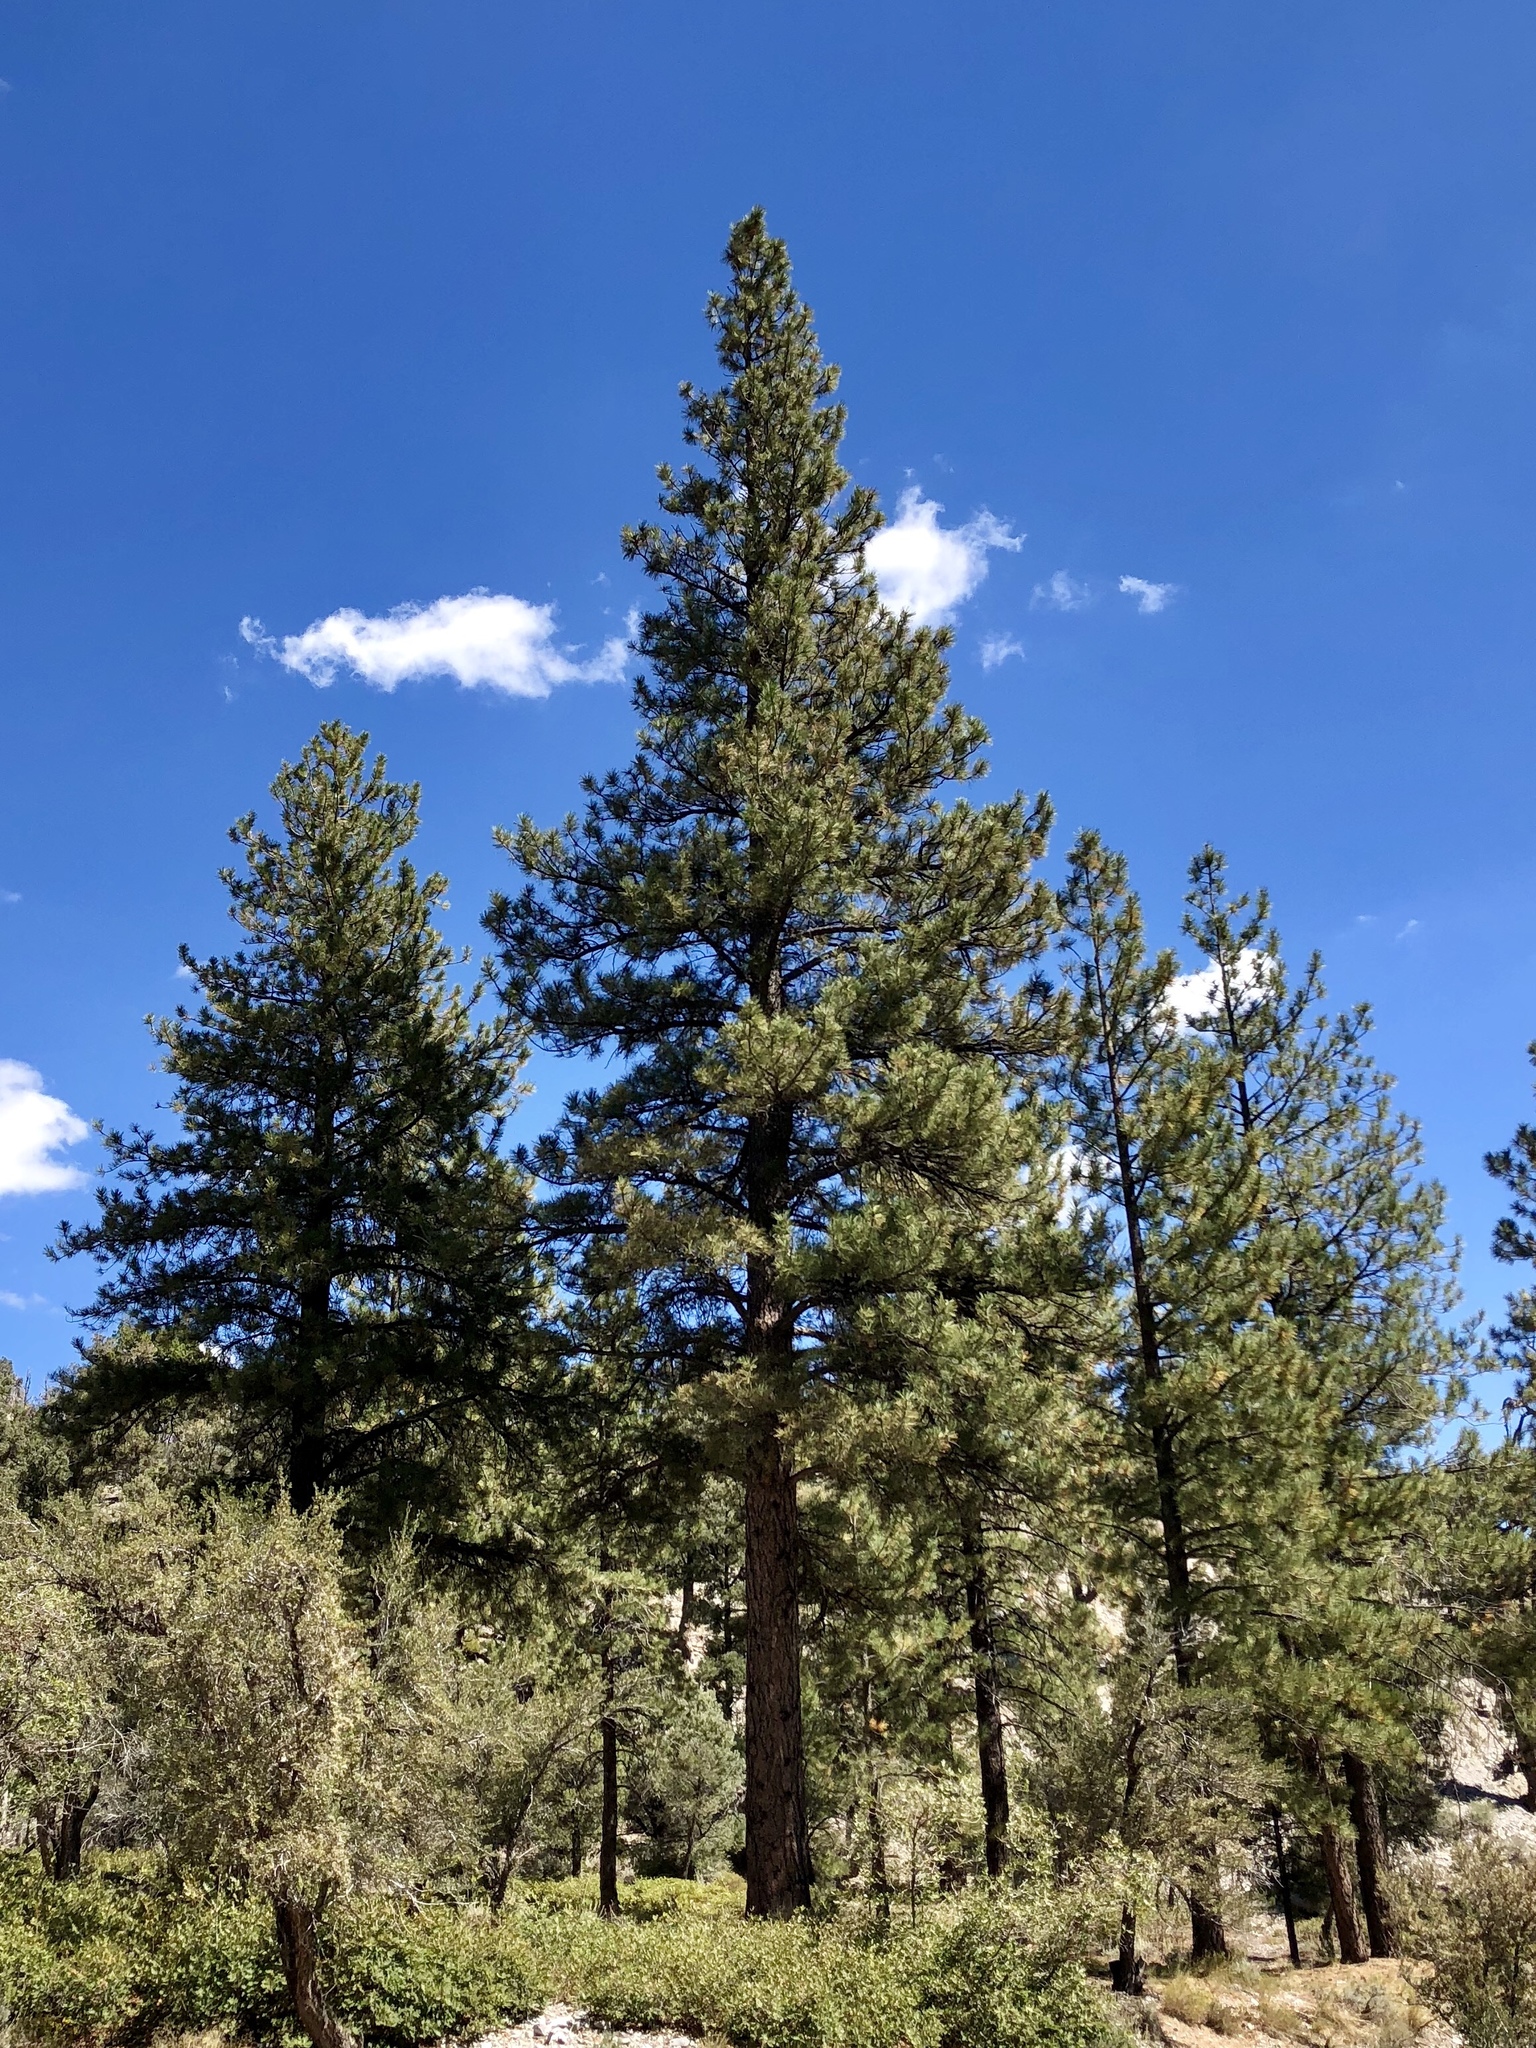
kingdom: Plantae
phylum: Tracheophyta
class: Pinopsida
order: Pinales
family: Pinaceae
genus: Pinus
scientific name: Pinus ponderosa
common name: Western yellow-pine
